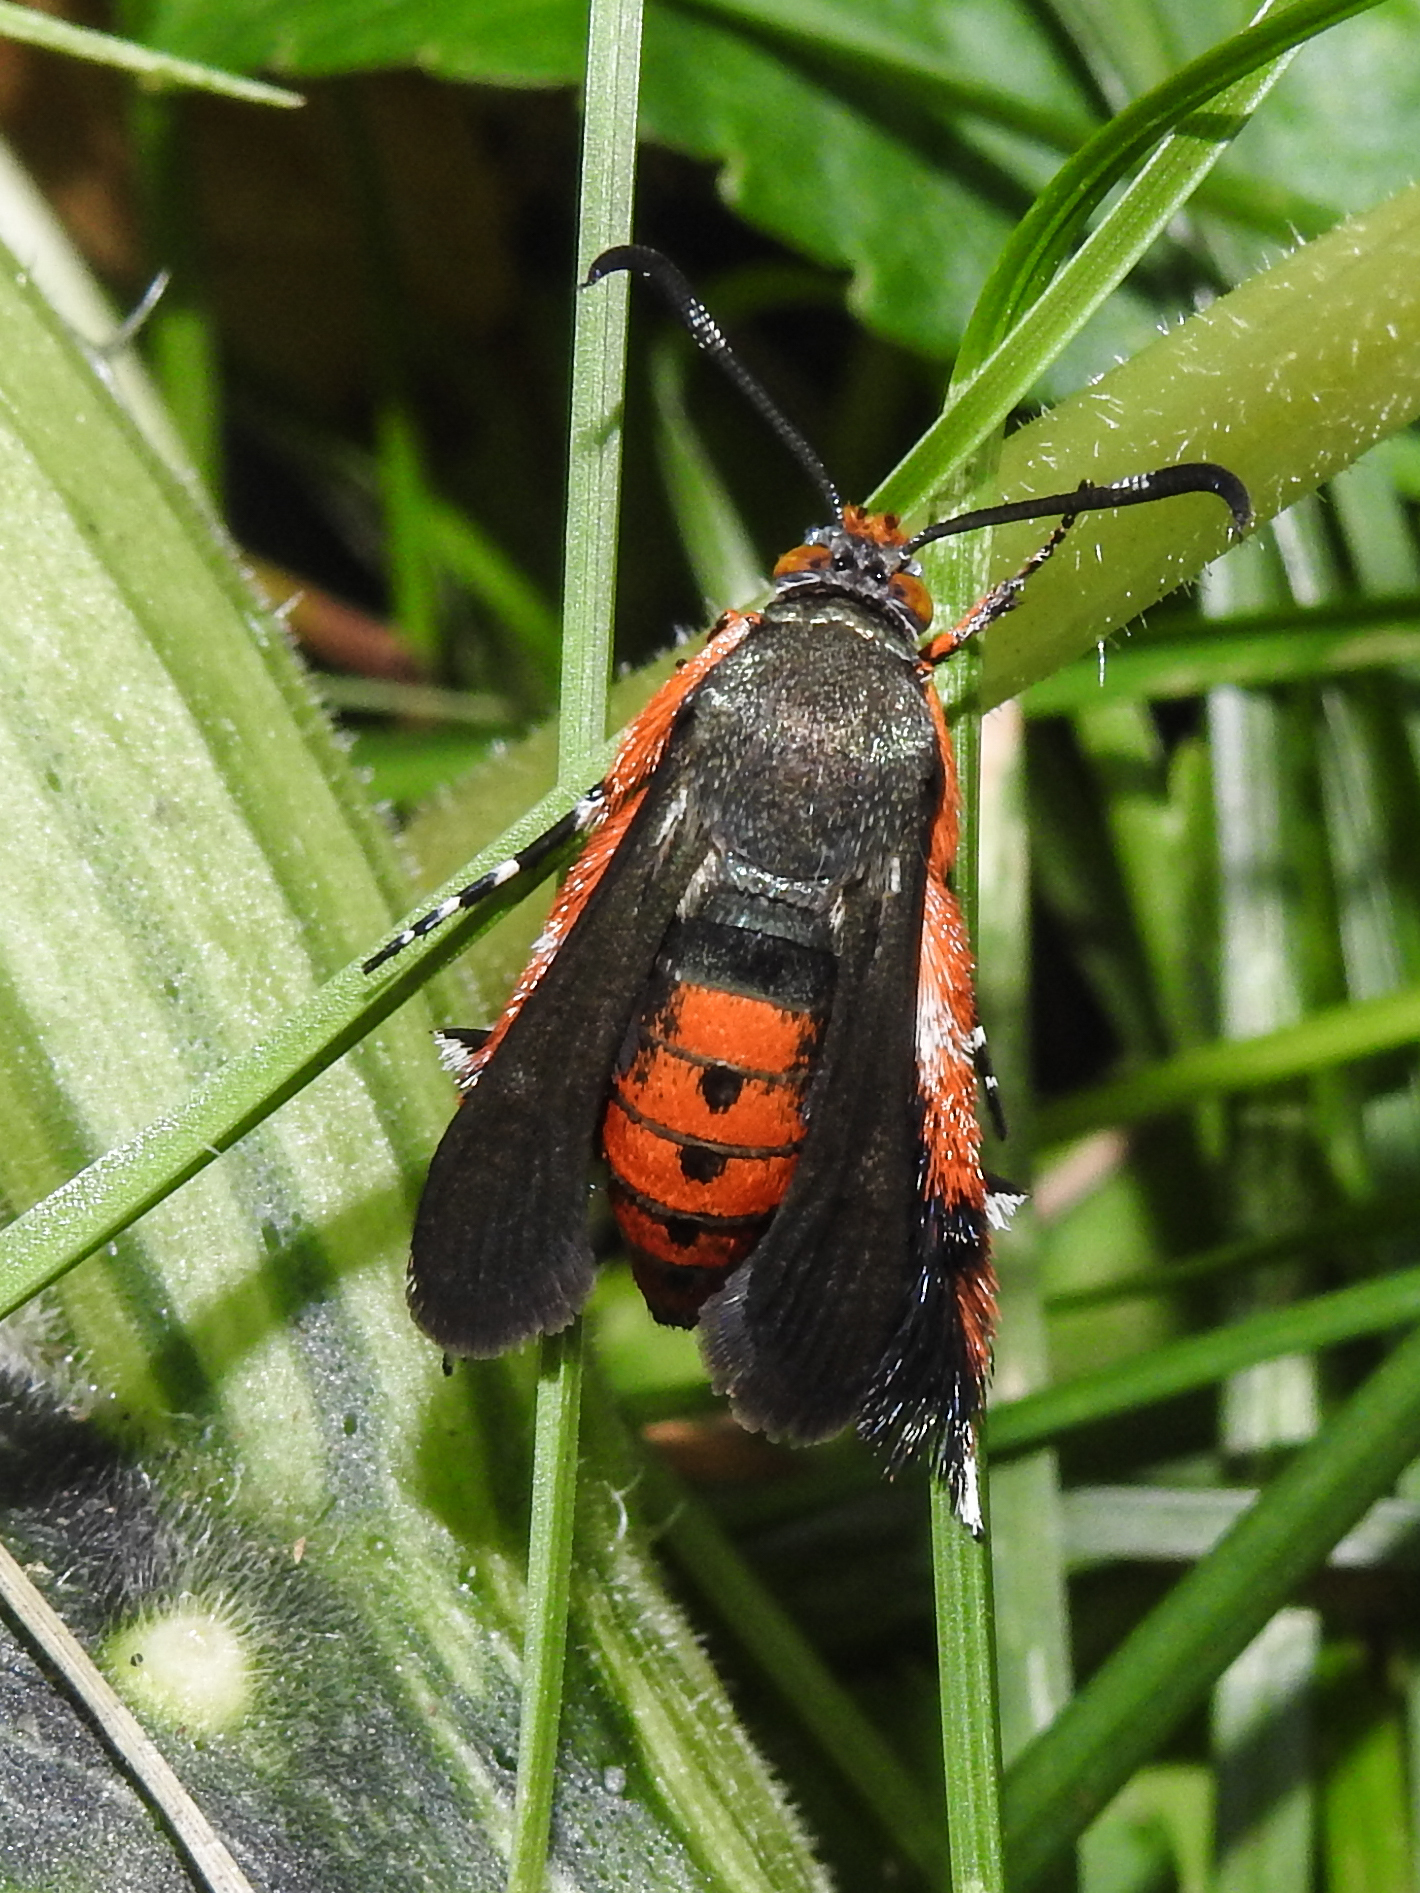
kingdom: Animalia
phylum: Arthropoda
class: Insecta
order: Lepidoptera
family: Sesiidae
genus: Eichlinia
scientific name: Eichlinia cucurbitae
